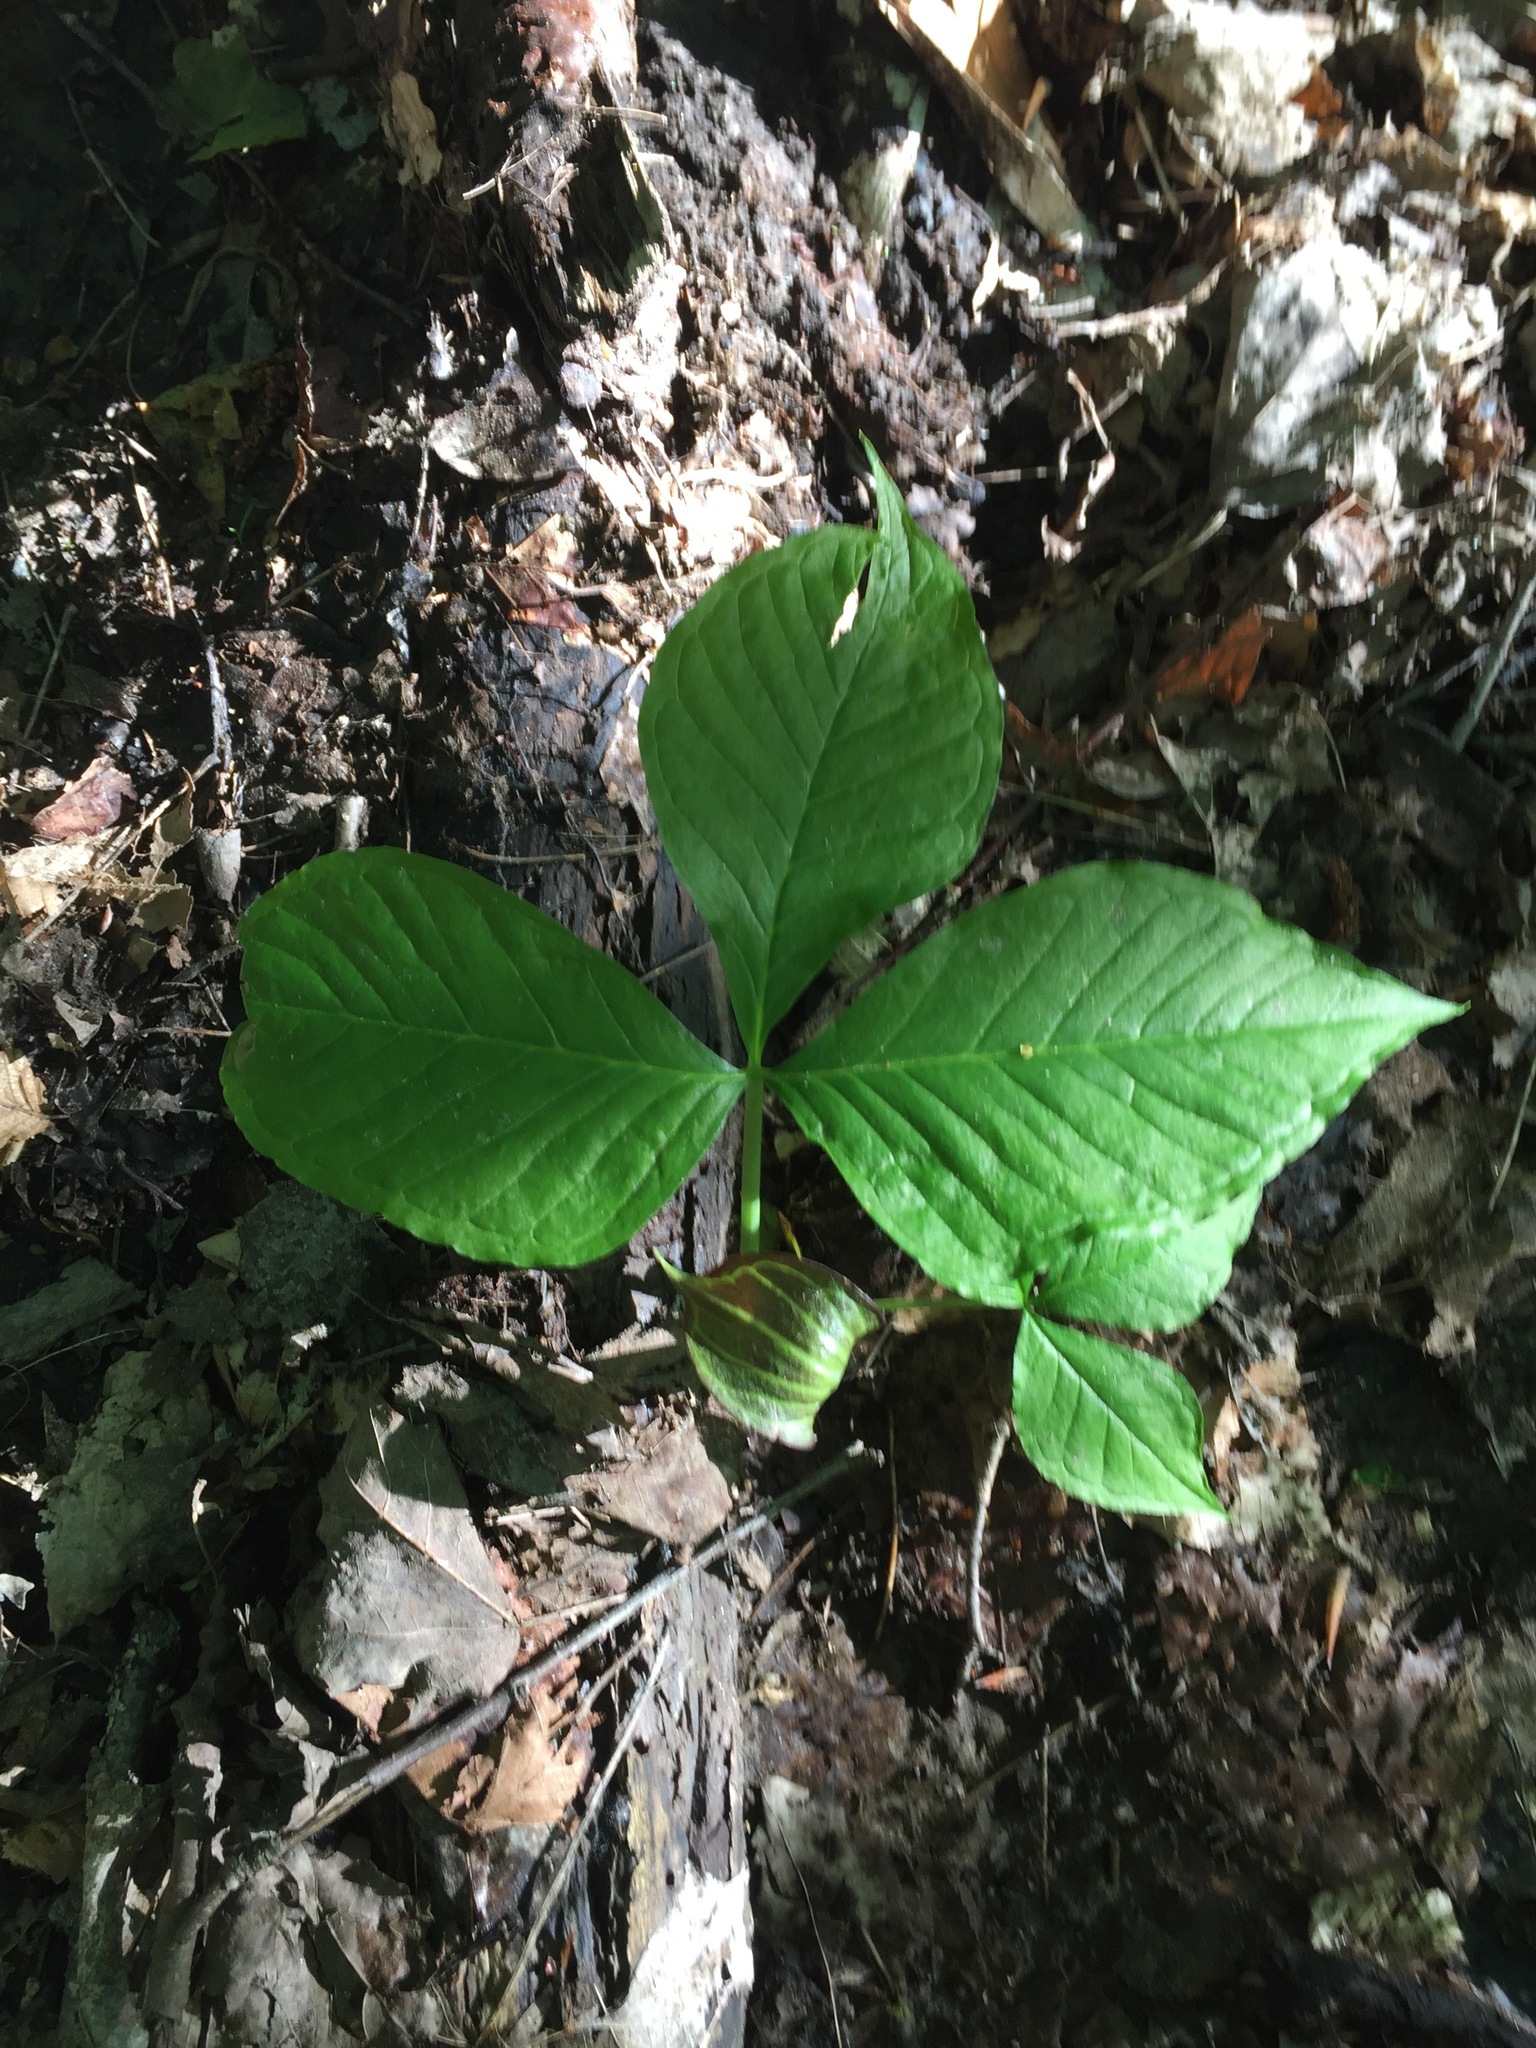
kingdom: Plantae
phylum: Tracheophyta
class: Liliopsida
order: Alismatales
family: Araceae
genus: Arisaema
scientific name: Arisaema triphyllum
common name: Jack-in-the-pulpit
